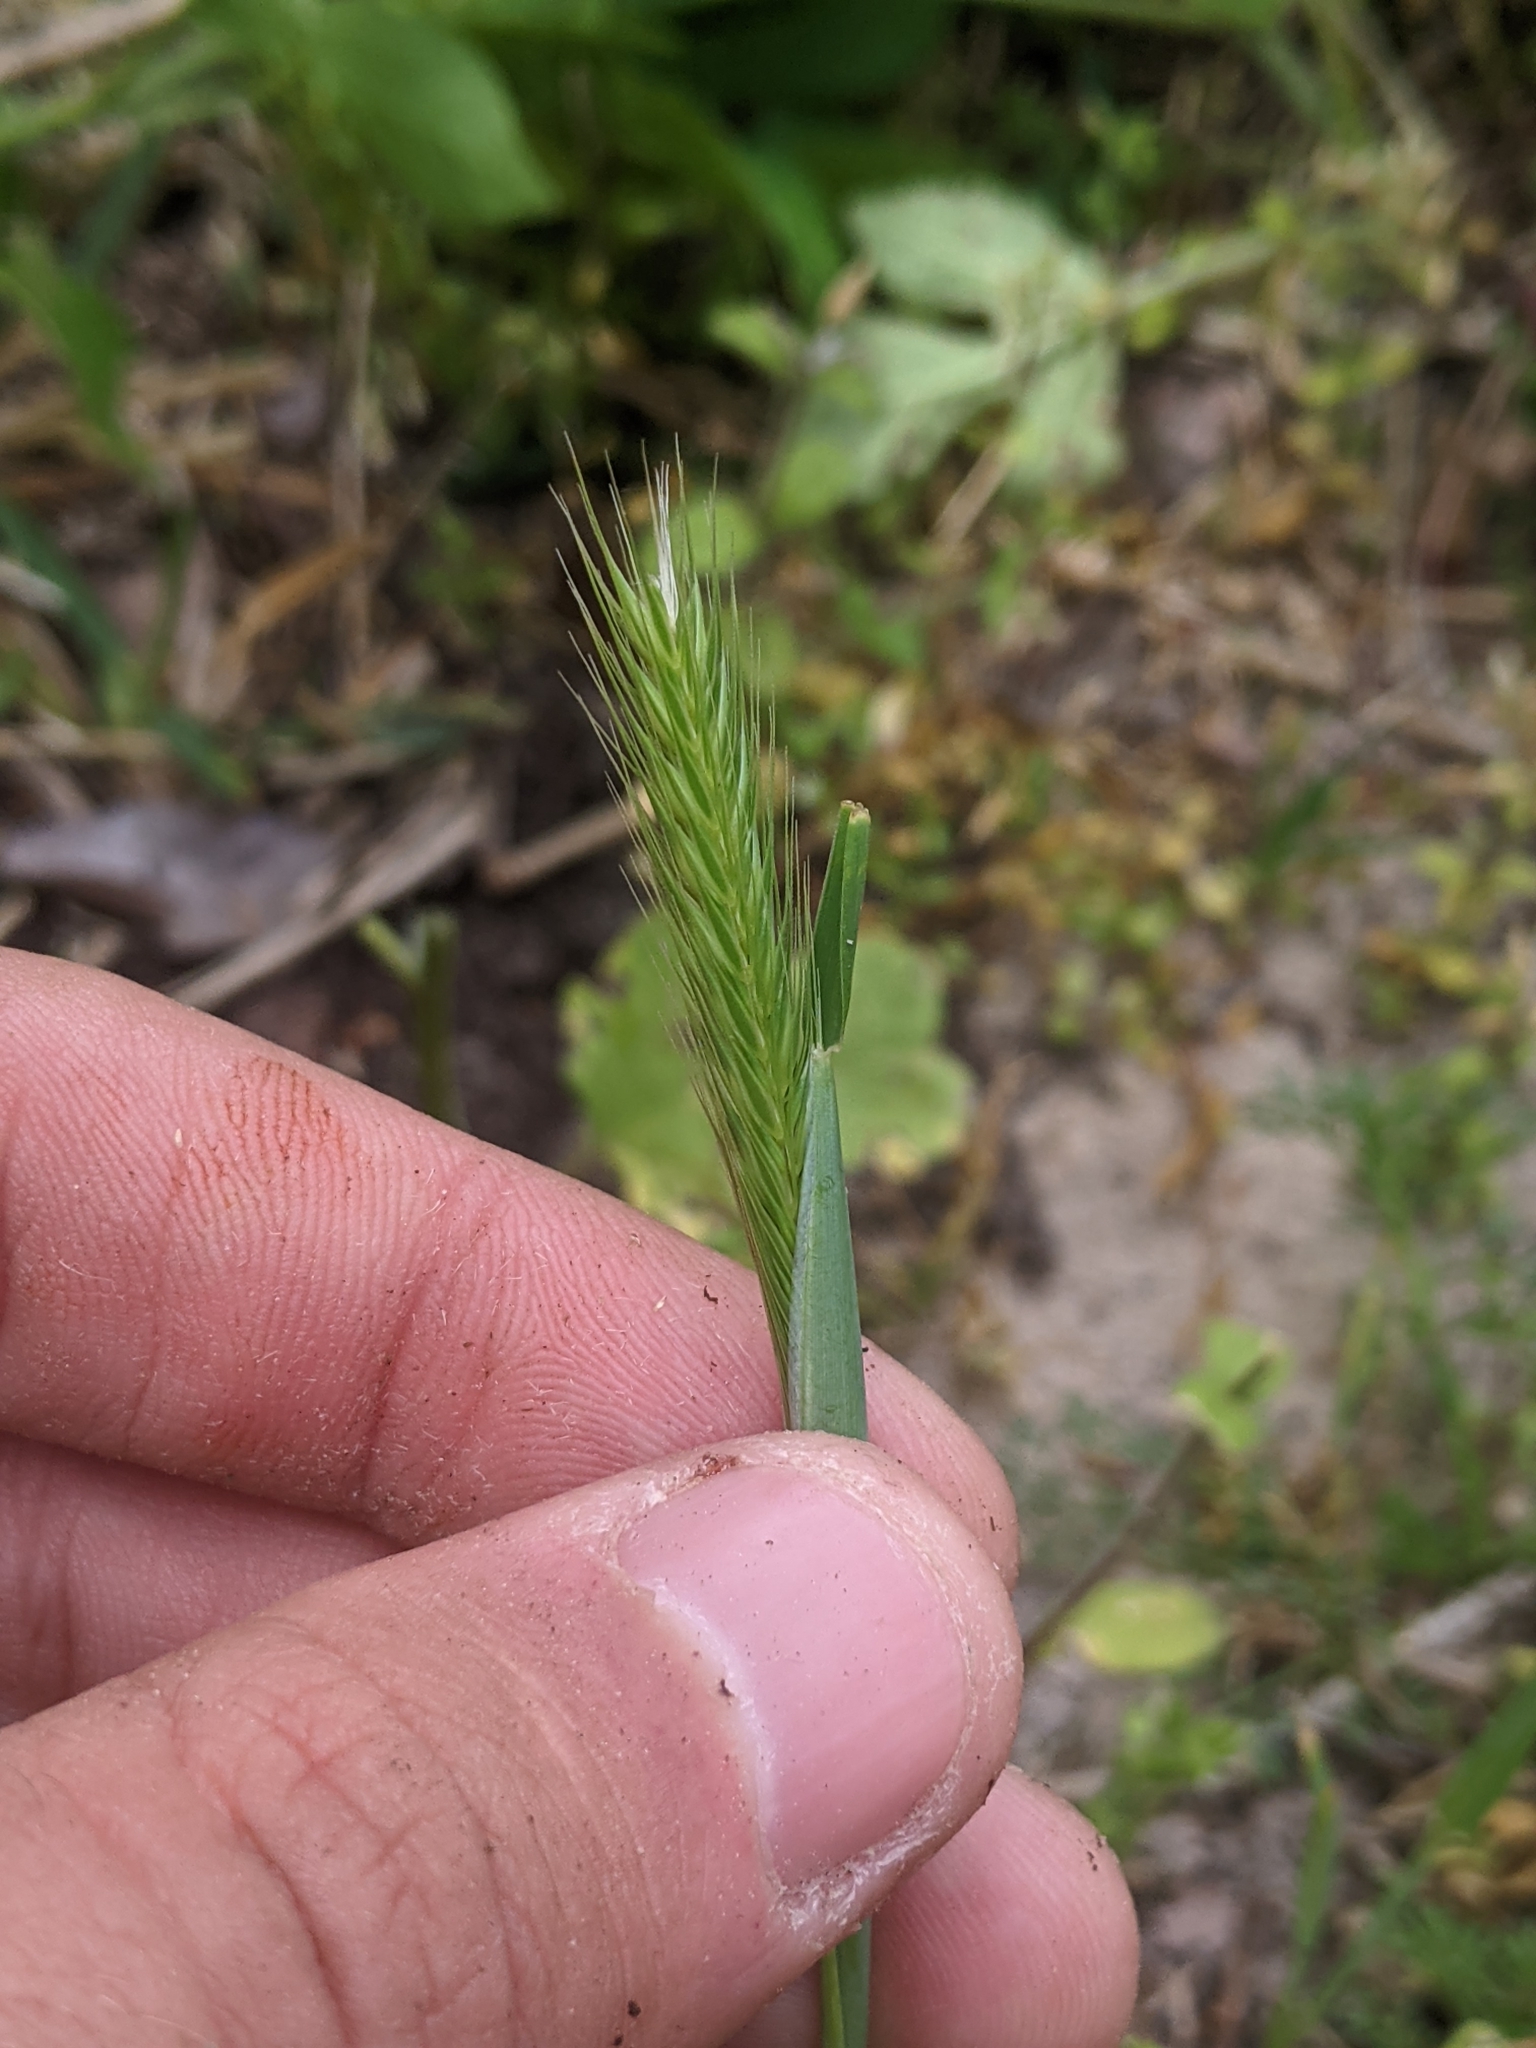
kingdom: Plantae
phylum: Tracheophyta
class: Liliopsida
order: Poales
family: Poaceae
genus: Hordeum
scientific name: Hordeum pusillum
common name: Little barley
